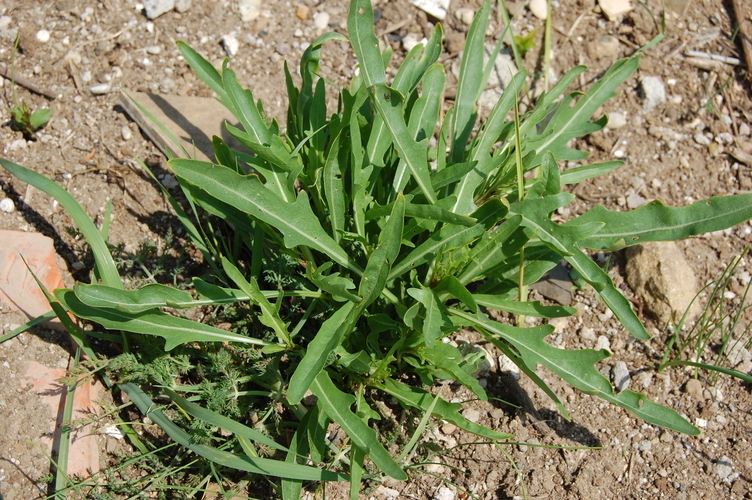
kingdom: Plantae
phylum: Tracheophyta
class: Magnoliopsida
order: Brassicales
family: Brassicaceae
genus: Diplotaxis
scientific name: Diplotaxis tenuifolia
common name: Perennial wall-rocket
